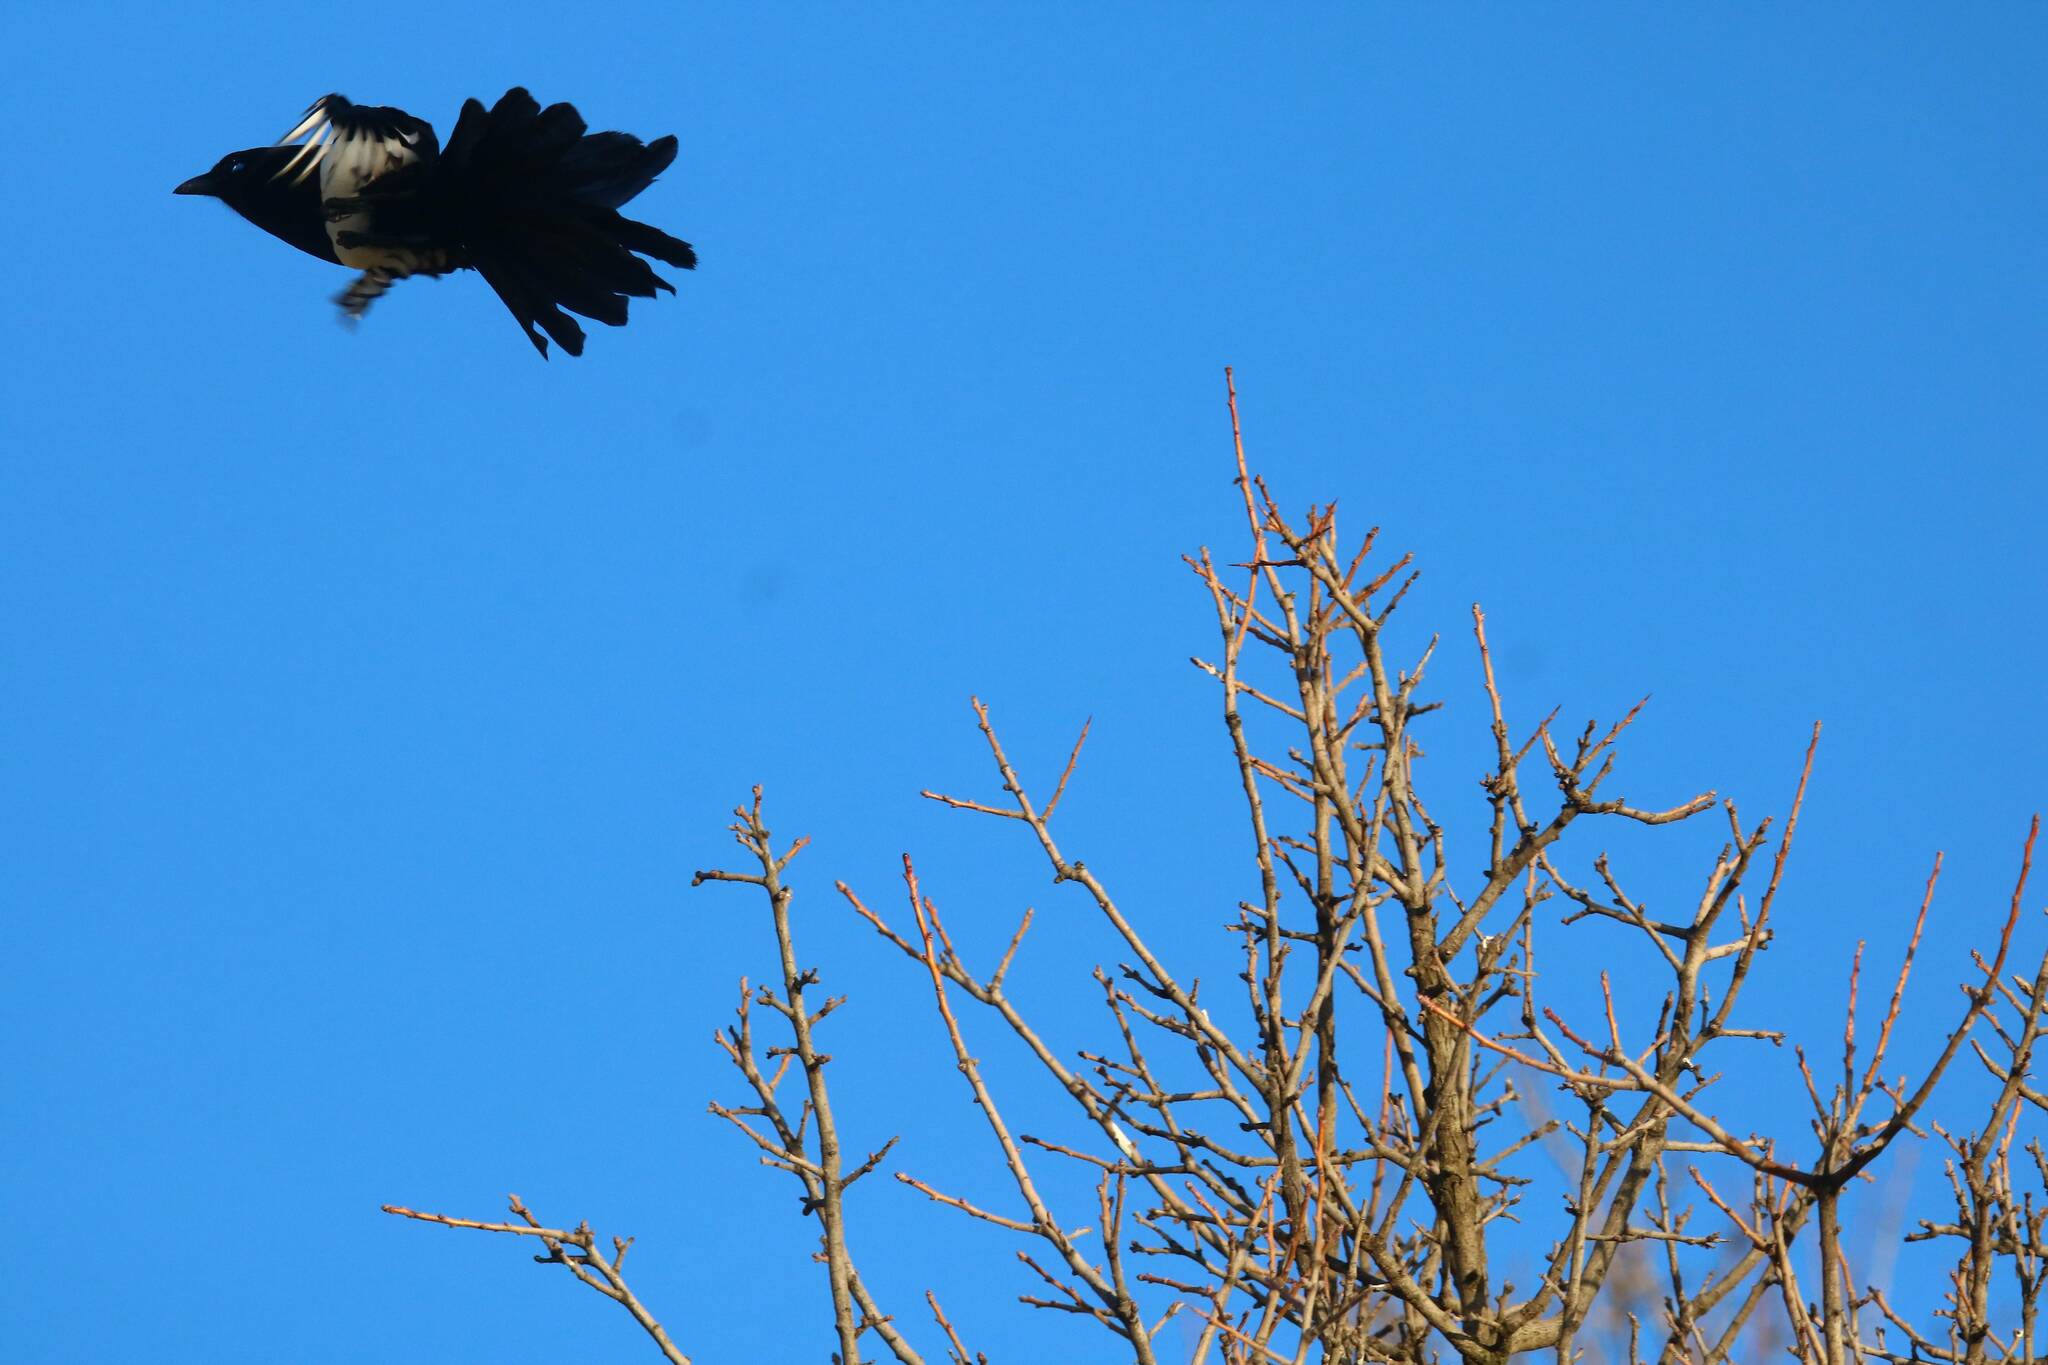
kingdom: Animalia
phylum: Chordata
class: Aves
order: Passeriformes
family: Corvidae
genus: Pica
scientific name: Pica mauritanica
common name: Maghreb magpie
